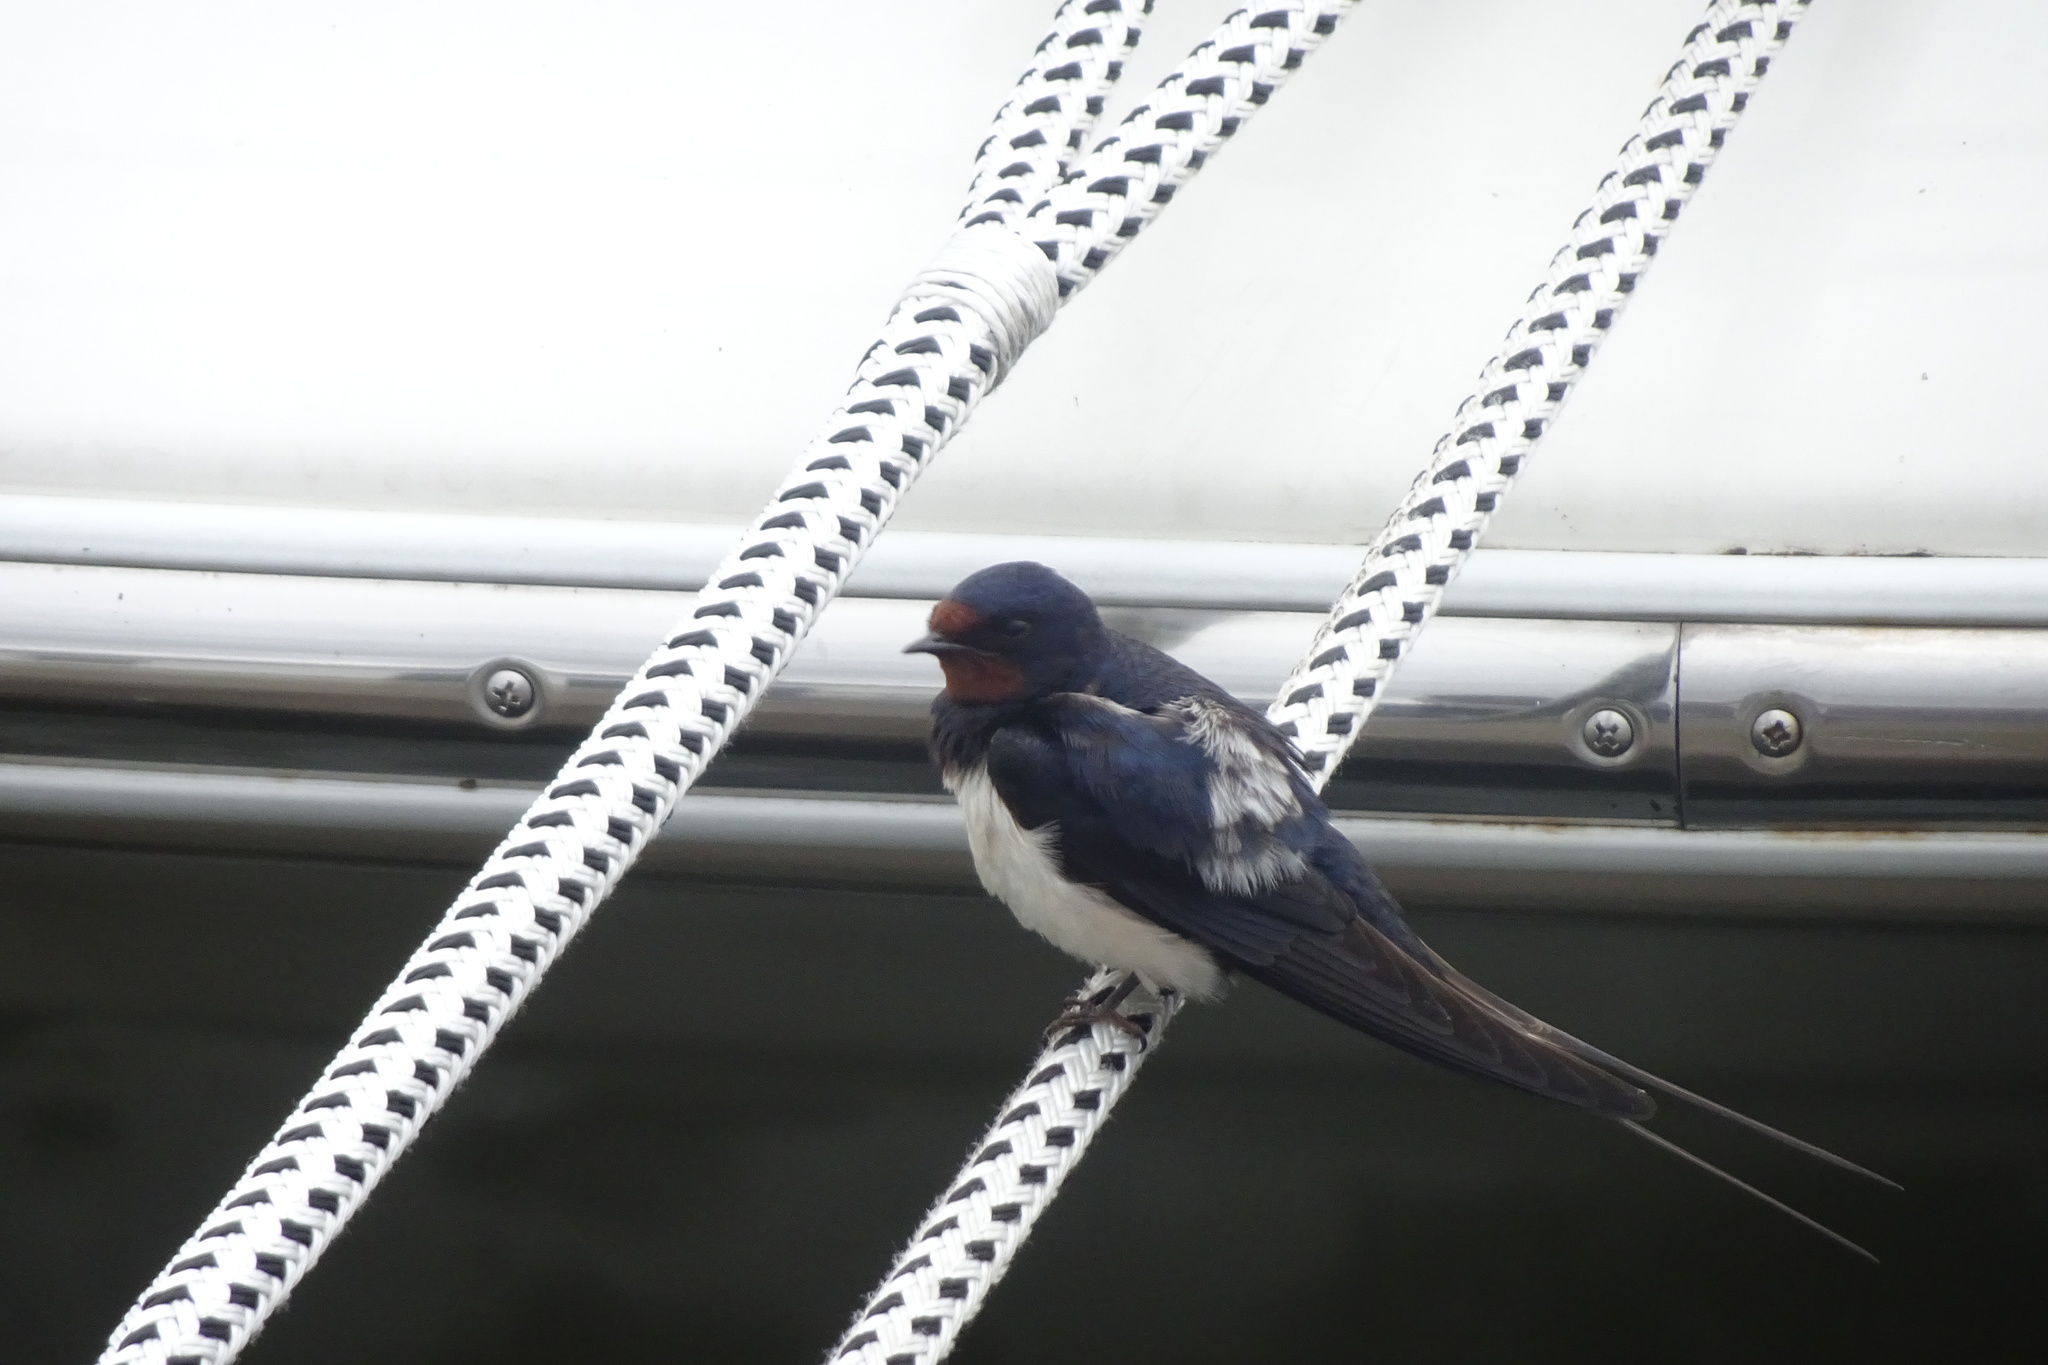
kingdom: Animalia
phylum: Chordata
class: Aves
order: Passeriformes
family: Hirundinidae
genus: Hirundo
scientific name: Hirundo rustica
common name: Barn swallow
